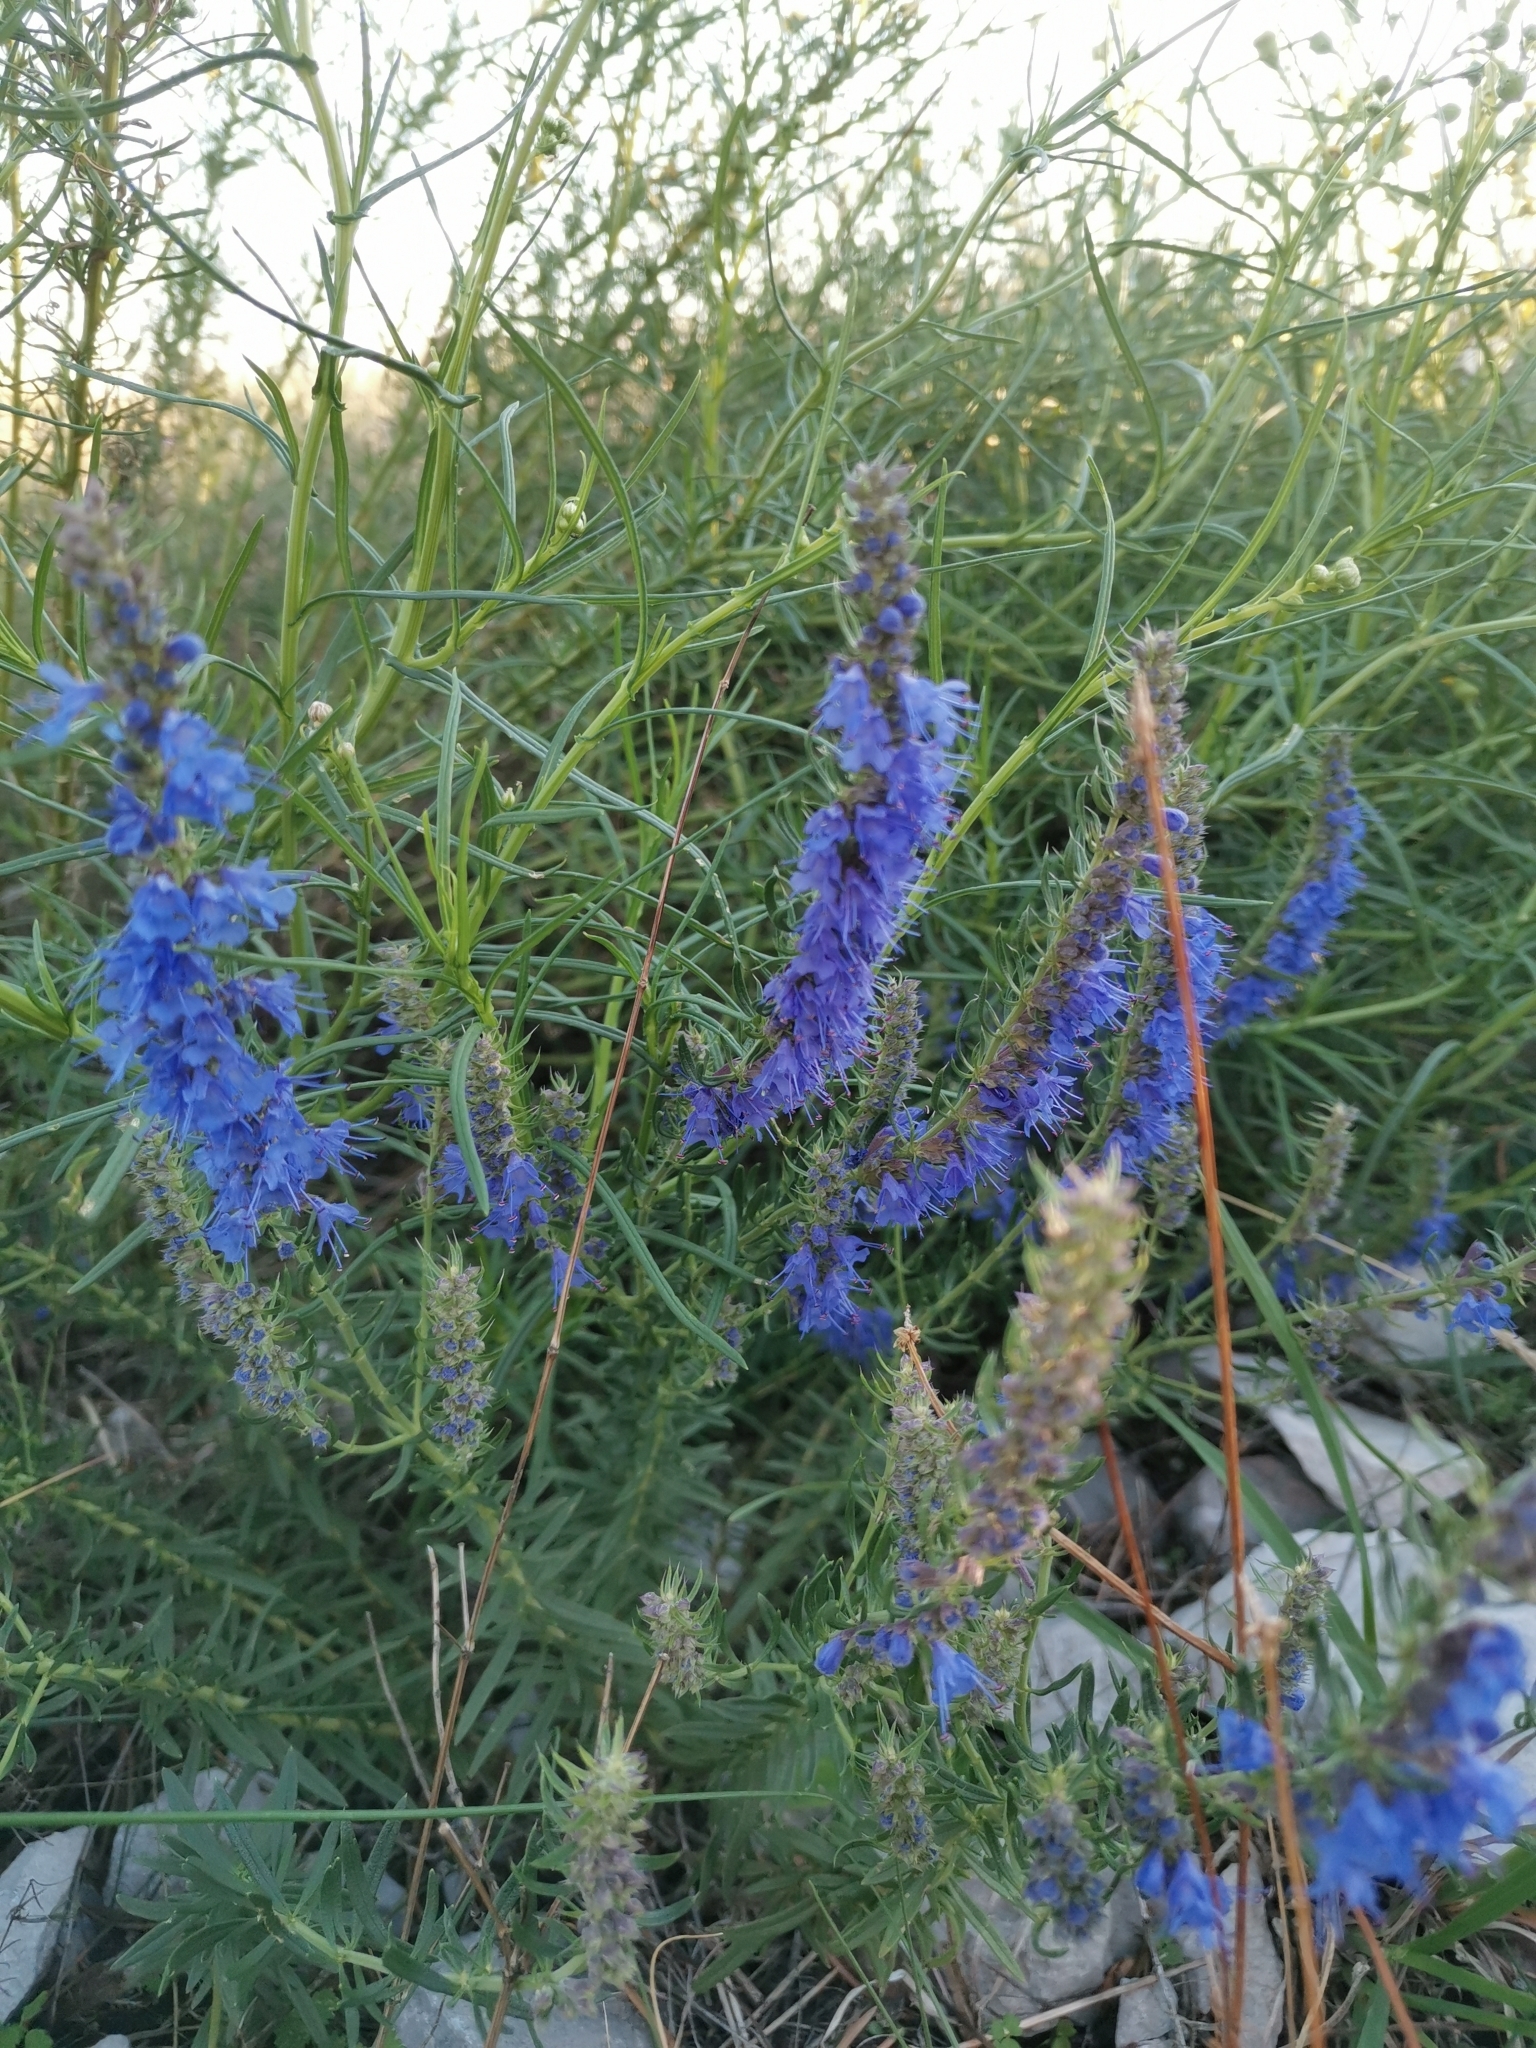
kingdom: Plantae
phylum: Tracheophyta
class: Magnoliopsida
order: Lamiales
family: Lamiaceae
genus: Hyssopus
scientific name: Hyssopus officinalis
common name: Hyssop
